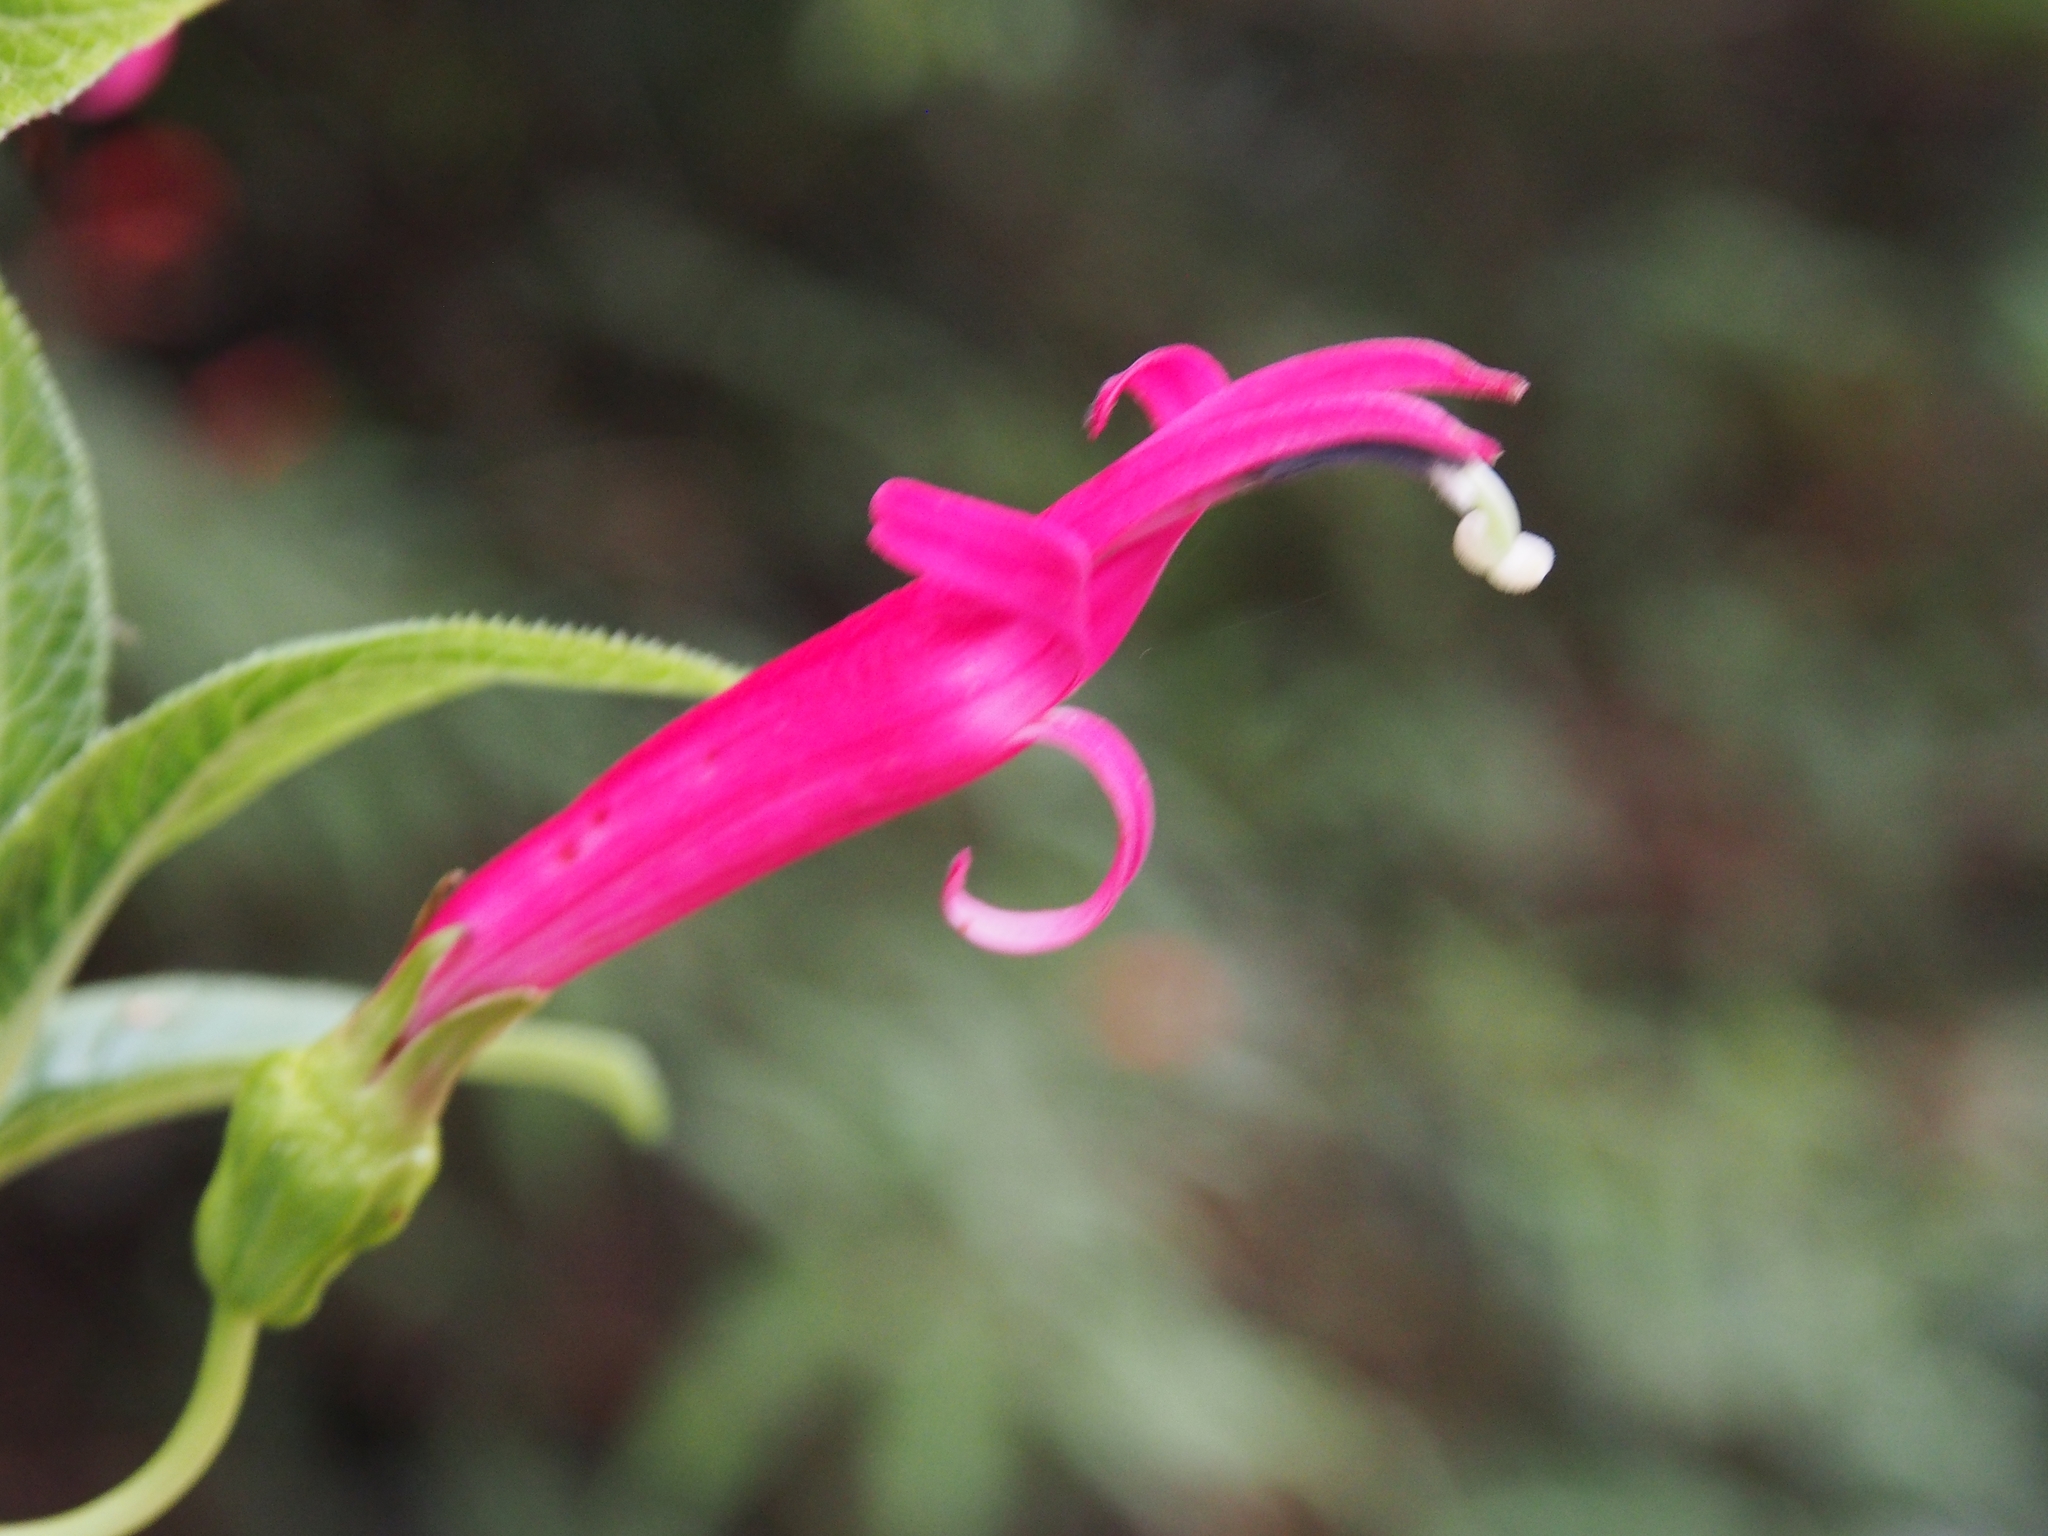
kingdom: Plantae
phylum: Tracheophyta
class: Magnoliopsida
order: Asterales
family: Campanulaceae
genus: Centropogon
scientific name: Centropogon talamancensis
